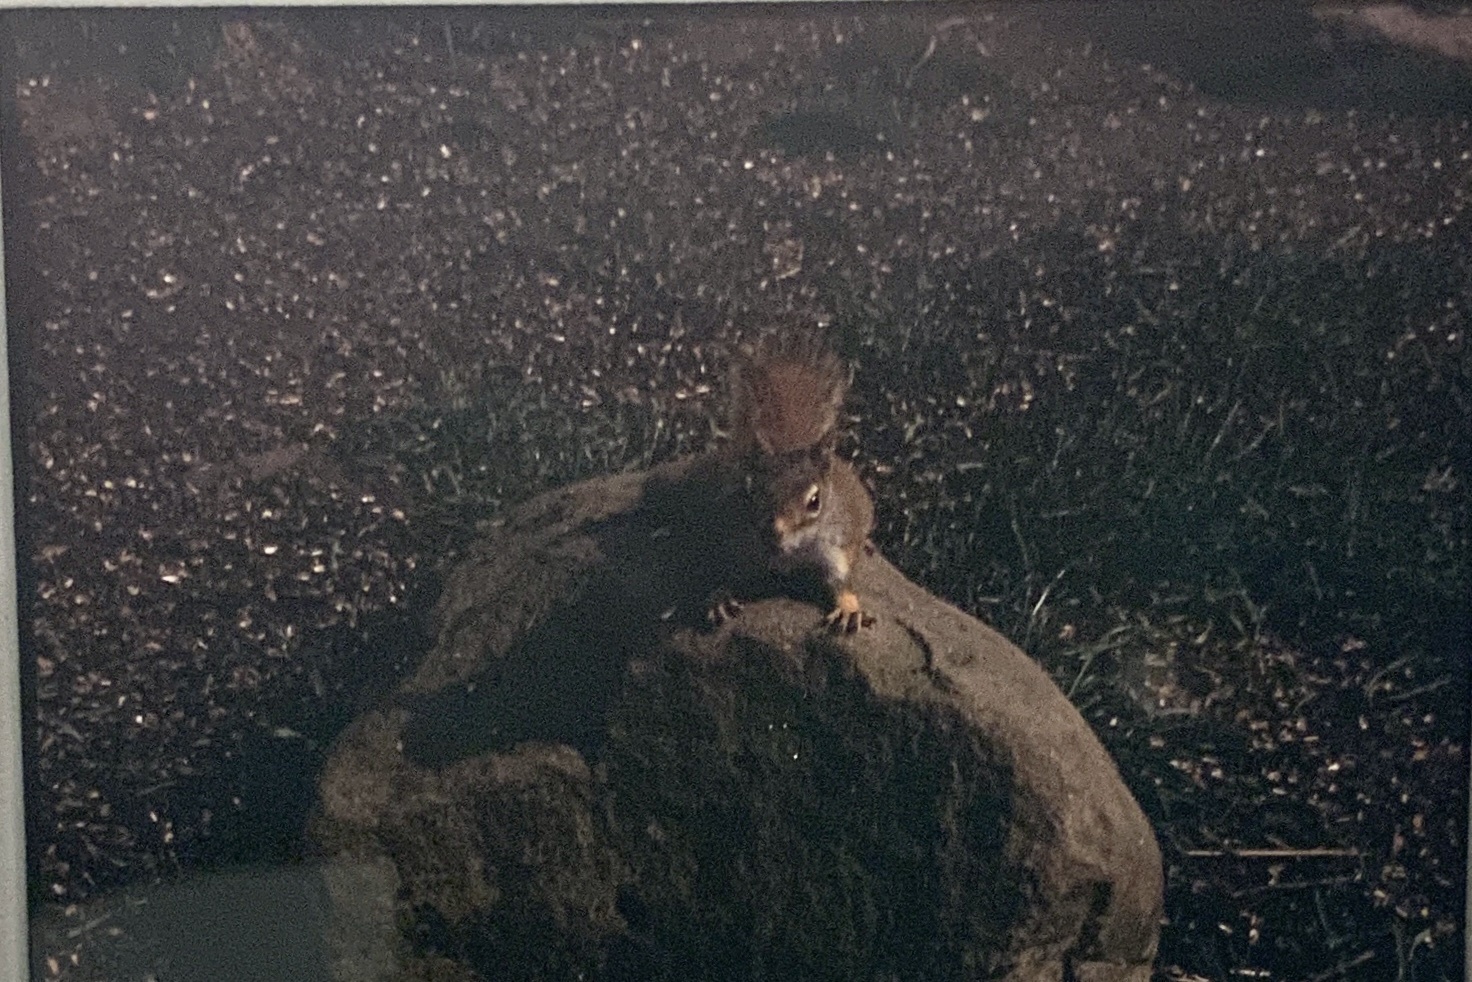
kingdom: Animalia
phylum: Chordata
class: Mammalia
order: Rodentia
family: Sciuridae
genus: Tamiasciurus
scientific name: Tamiasciurus hudsonicus
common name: Red squirrel
